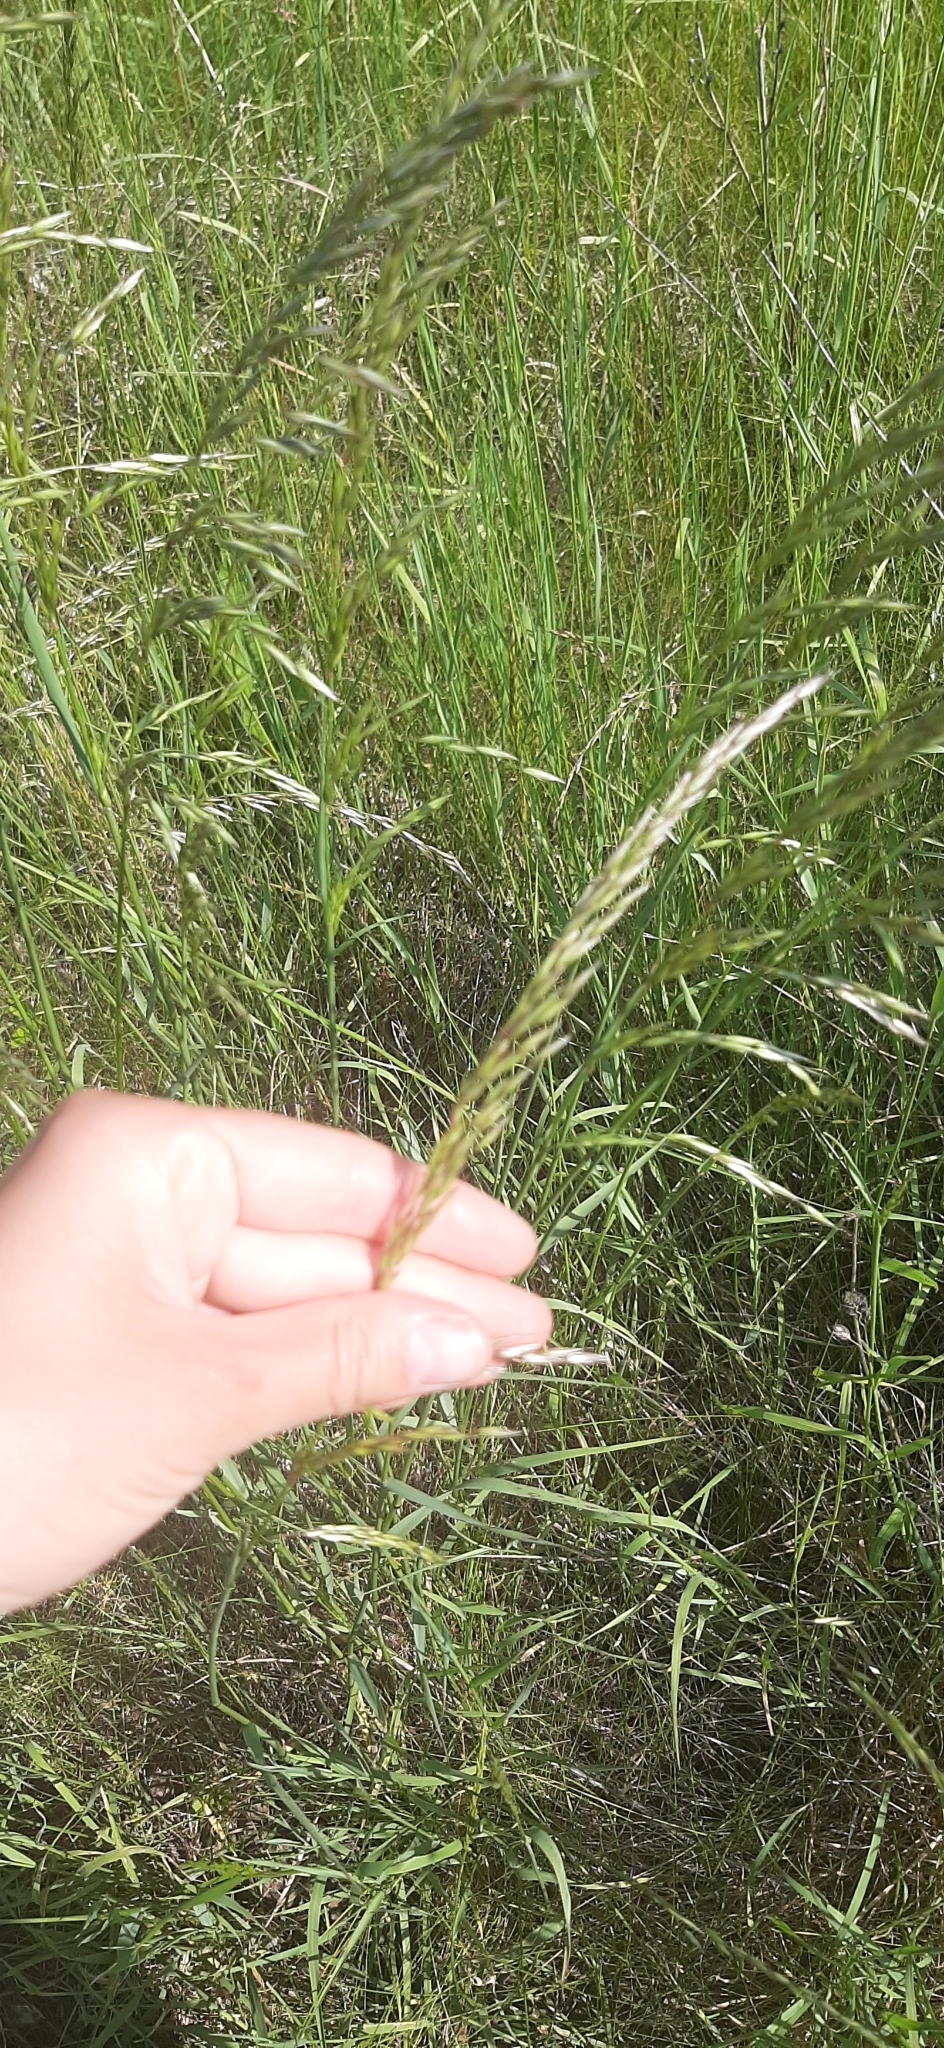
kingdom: Plantae
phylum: Tracheophyta
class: Liliopsida
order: Poales
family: Poaceae
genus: Arrhenatherum
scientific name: Arrhenatherum elatius
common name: Tall oatgrass
